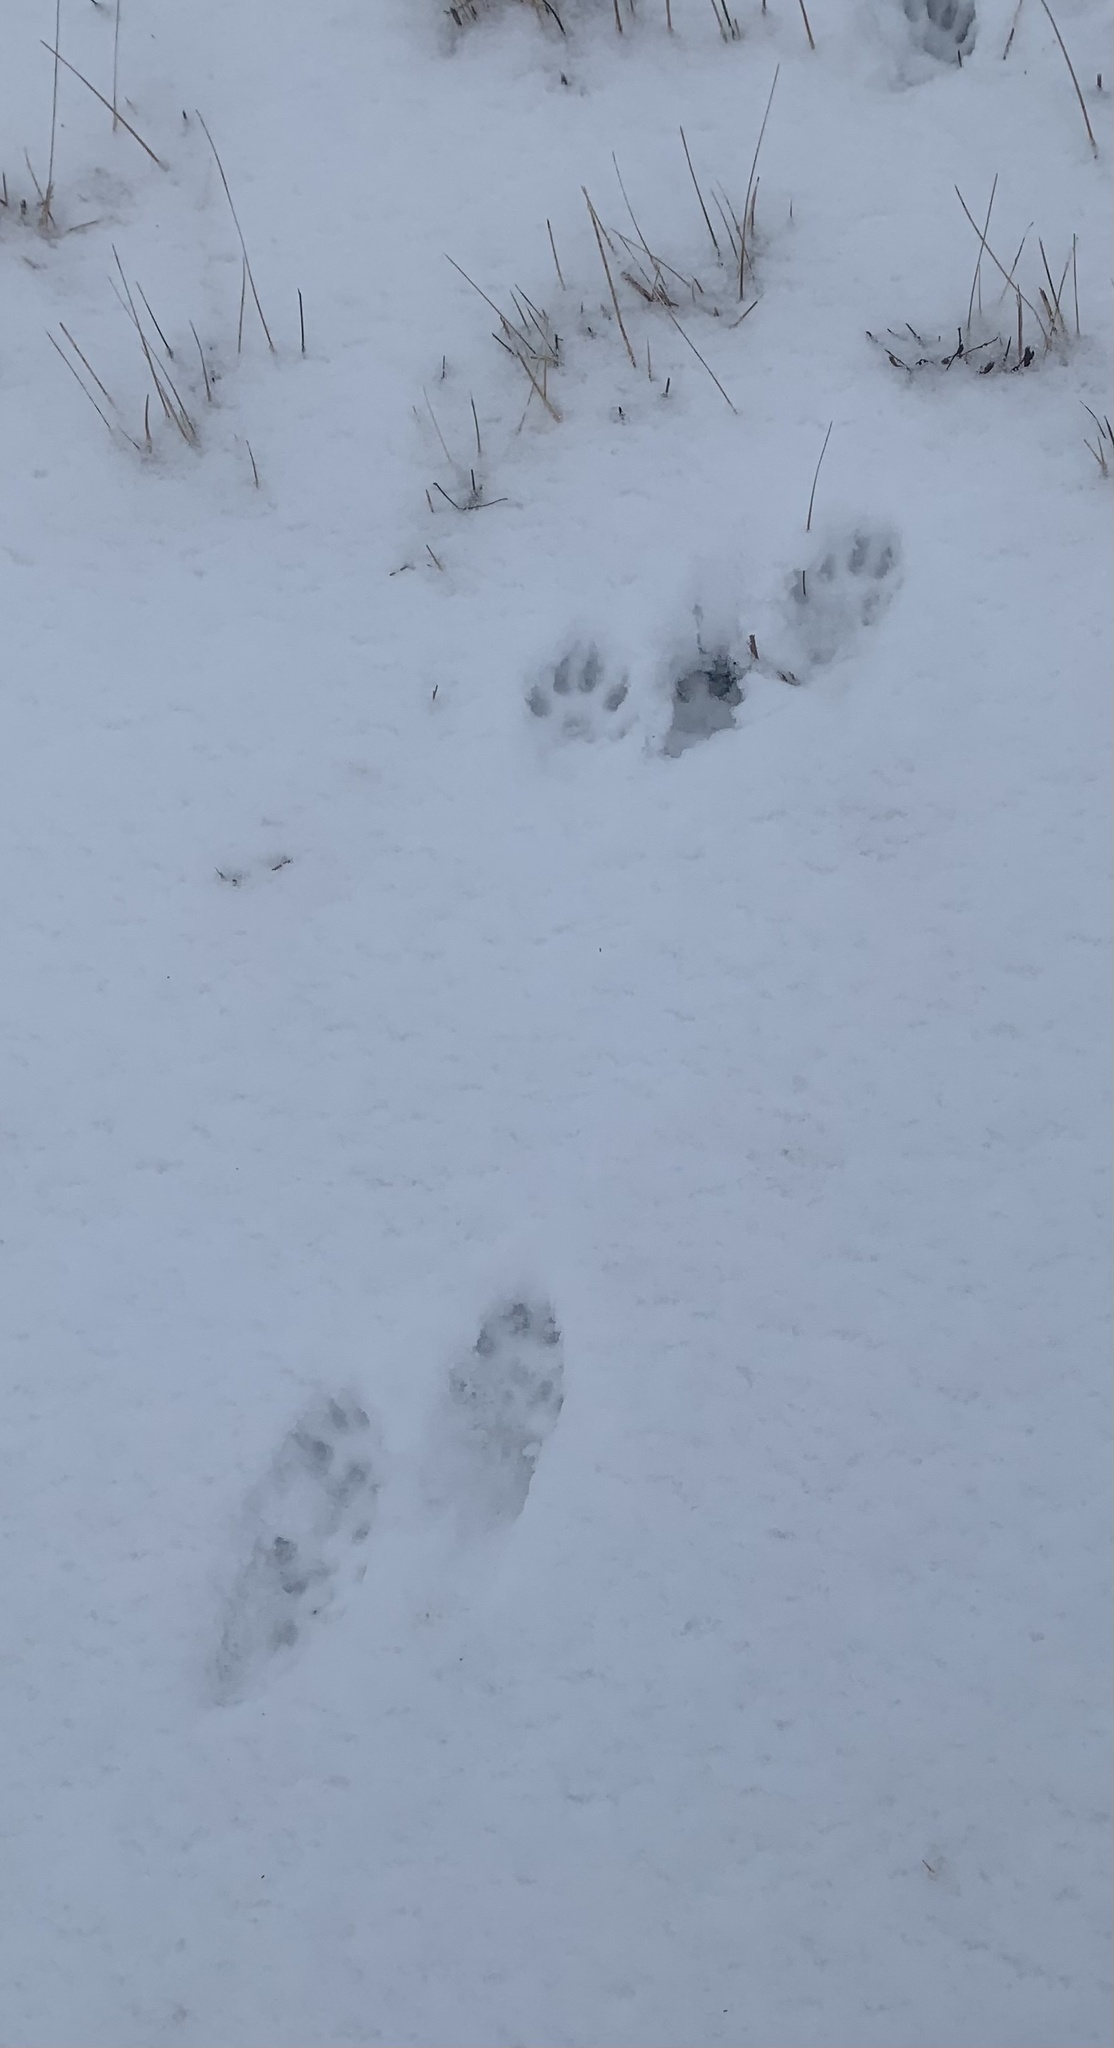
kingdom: Animalia
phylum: Chordata
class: Mammalia
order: Carnivora
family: Mustelidae
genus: Mustela
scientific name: Mustela
